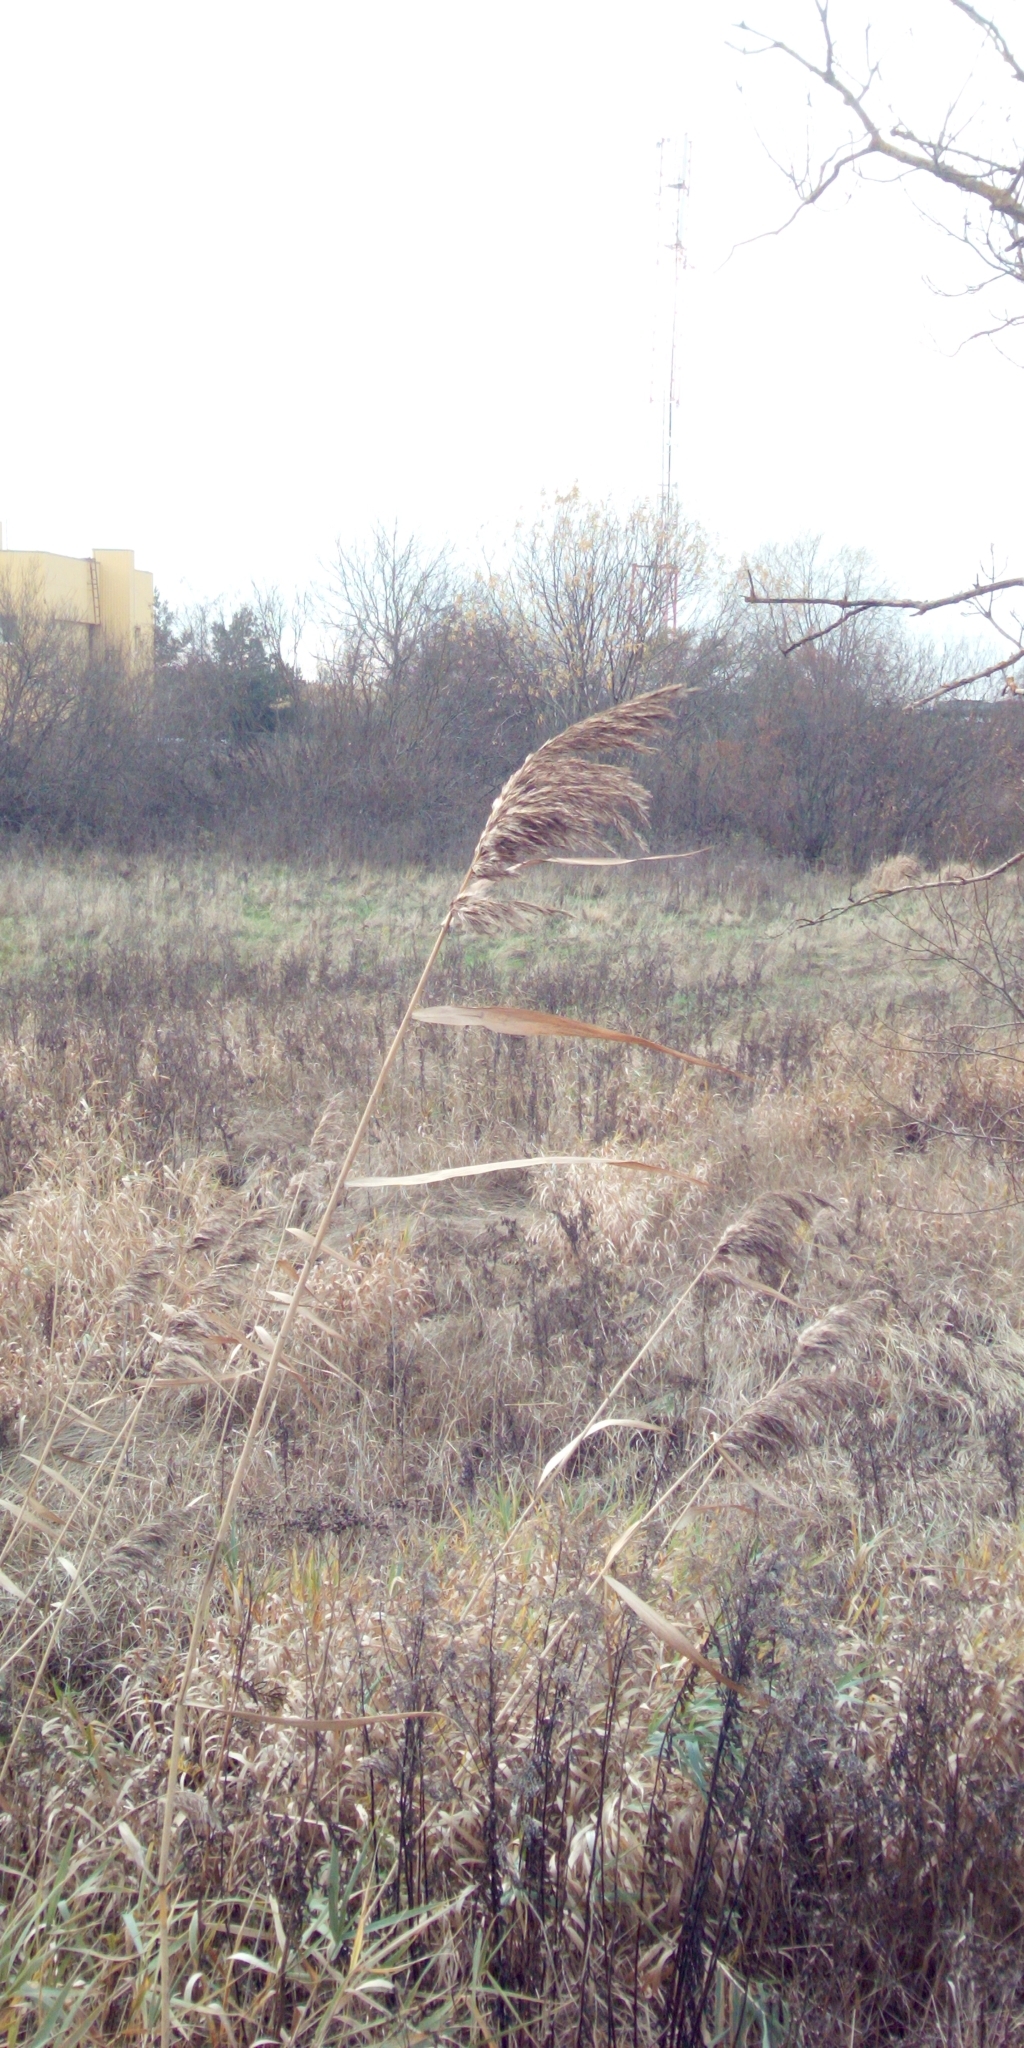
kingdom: Plantae
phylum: Tracheophyta
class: Liliopsida
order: Poales
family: Poaceae
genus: Phragmites
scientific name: Phragmites australis
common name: Common reed
